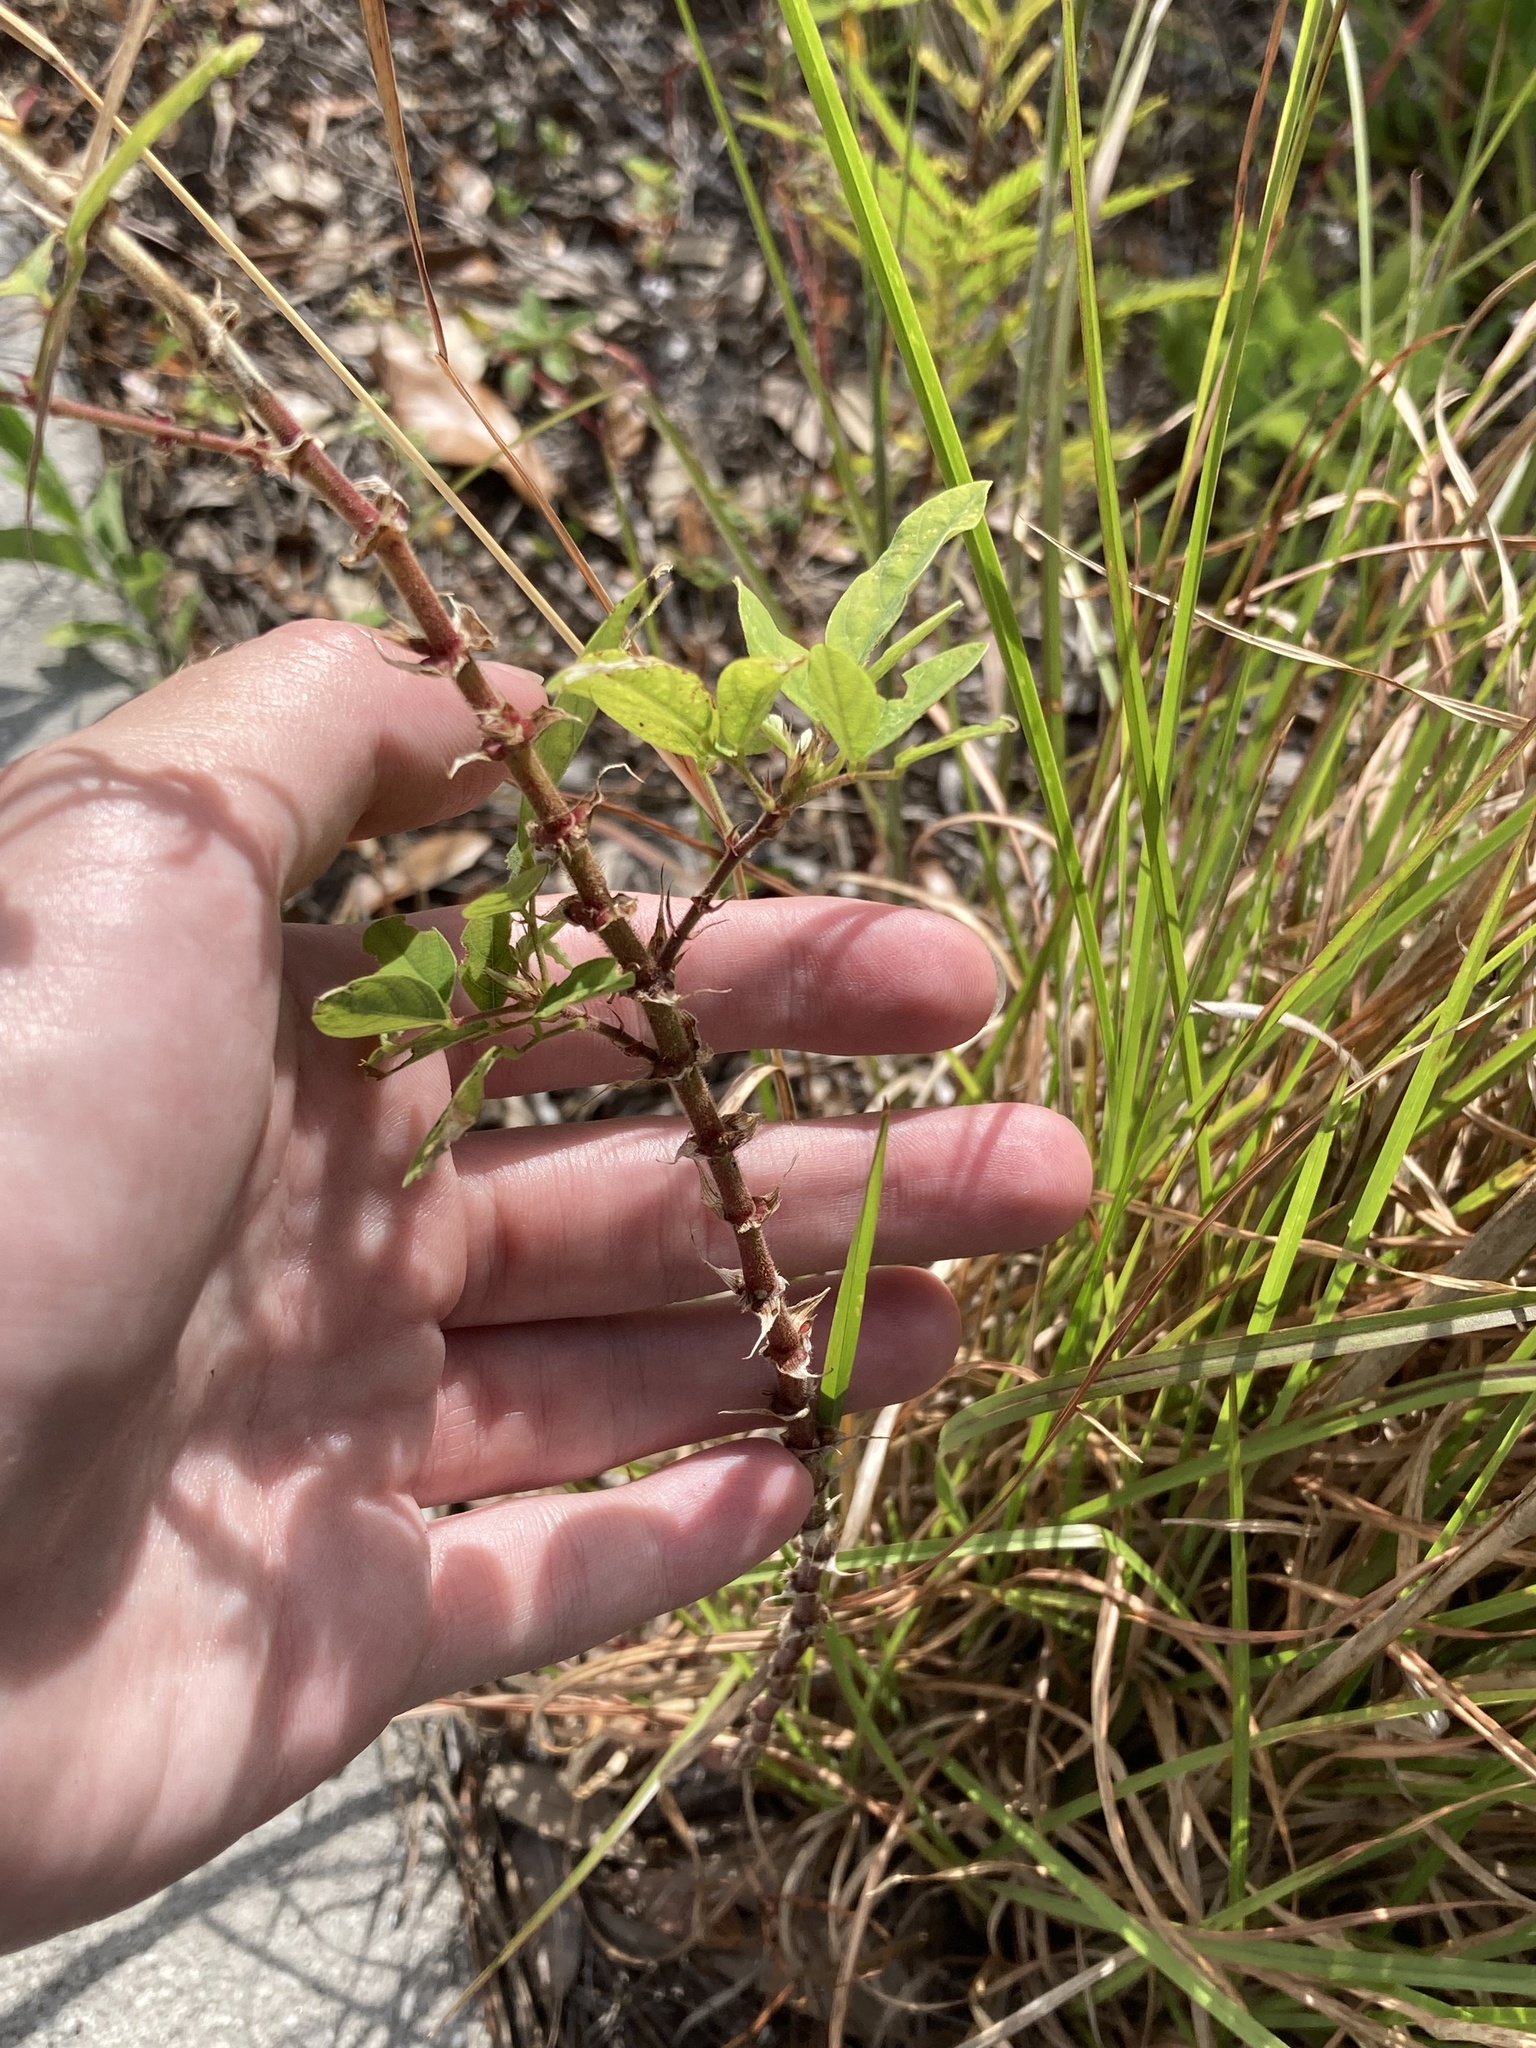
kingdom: Plantae
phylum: Tracheophyta
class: Magnoliopsida
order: Fabales
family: Fabaceae
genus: Desmodium
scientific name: Desmodium tortuosum
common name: Dixie ticktrefoil
